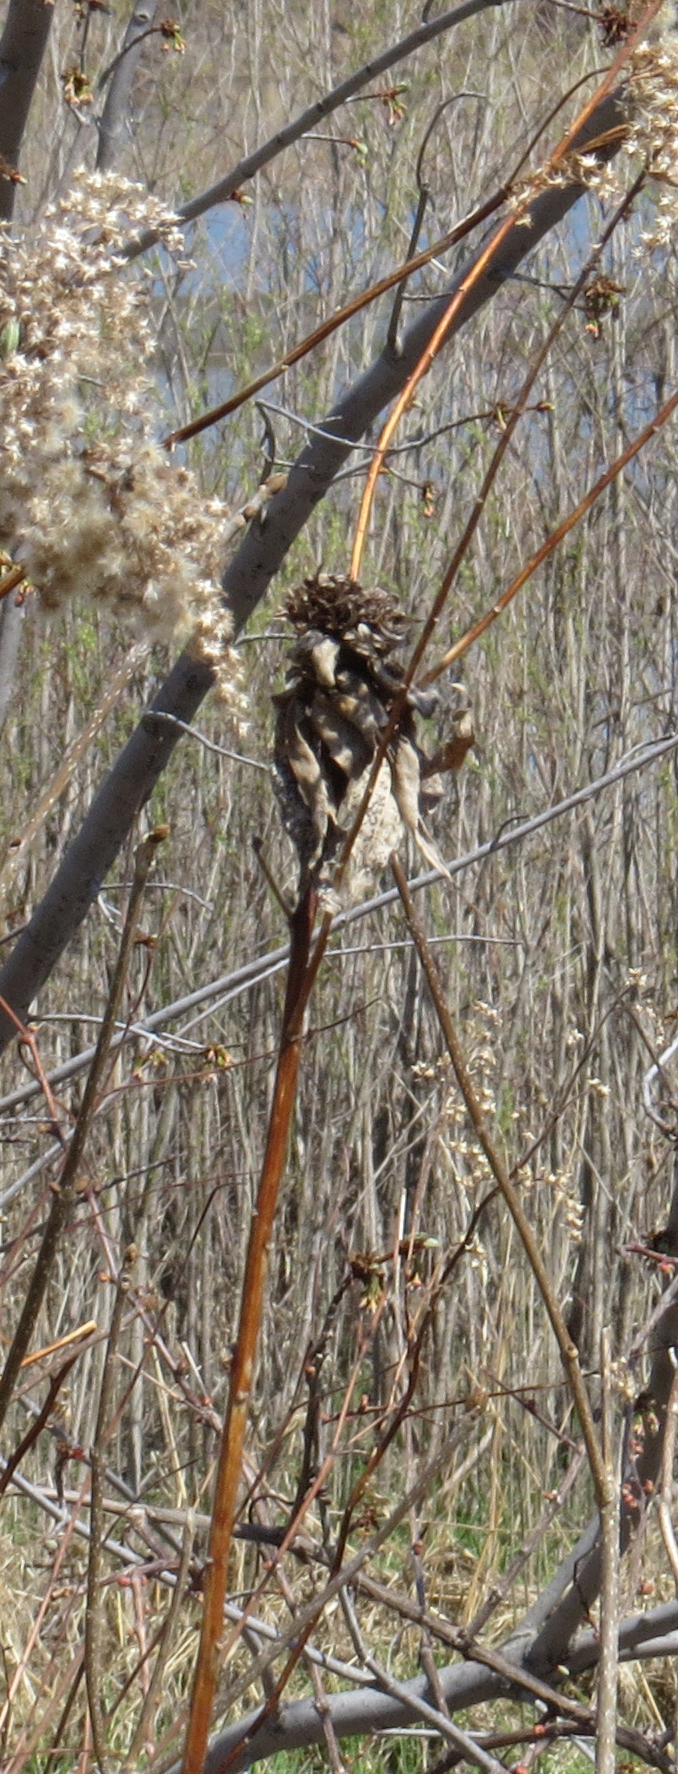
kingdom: Animalia
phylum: Arthropoda
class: Insecta
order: Diptera
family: Cecidomyiidae
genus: Rhopalomyia
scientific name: Rhopalomyia solidaginis
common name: Goldenrod bunch gall midge
